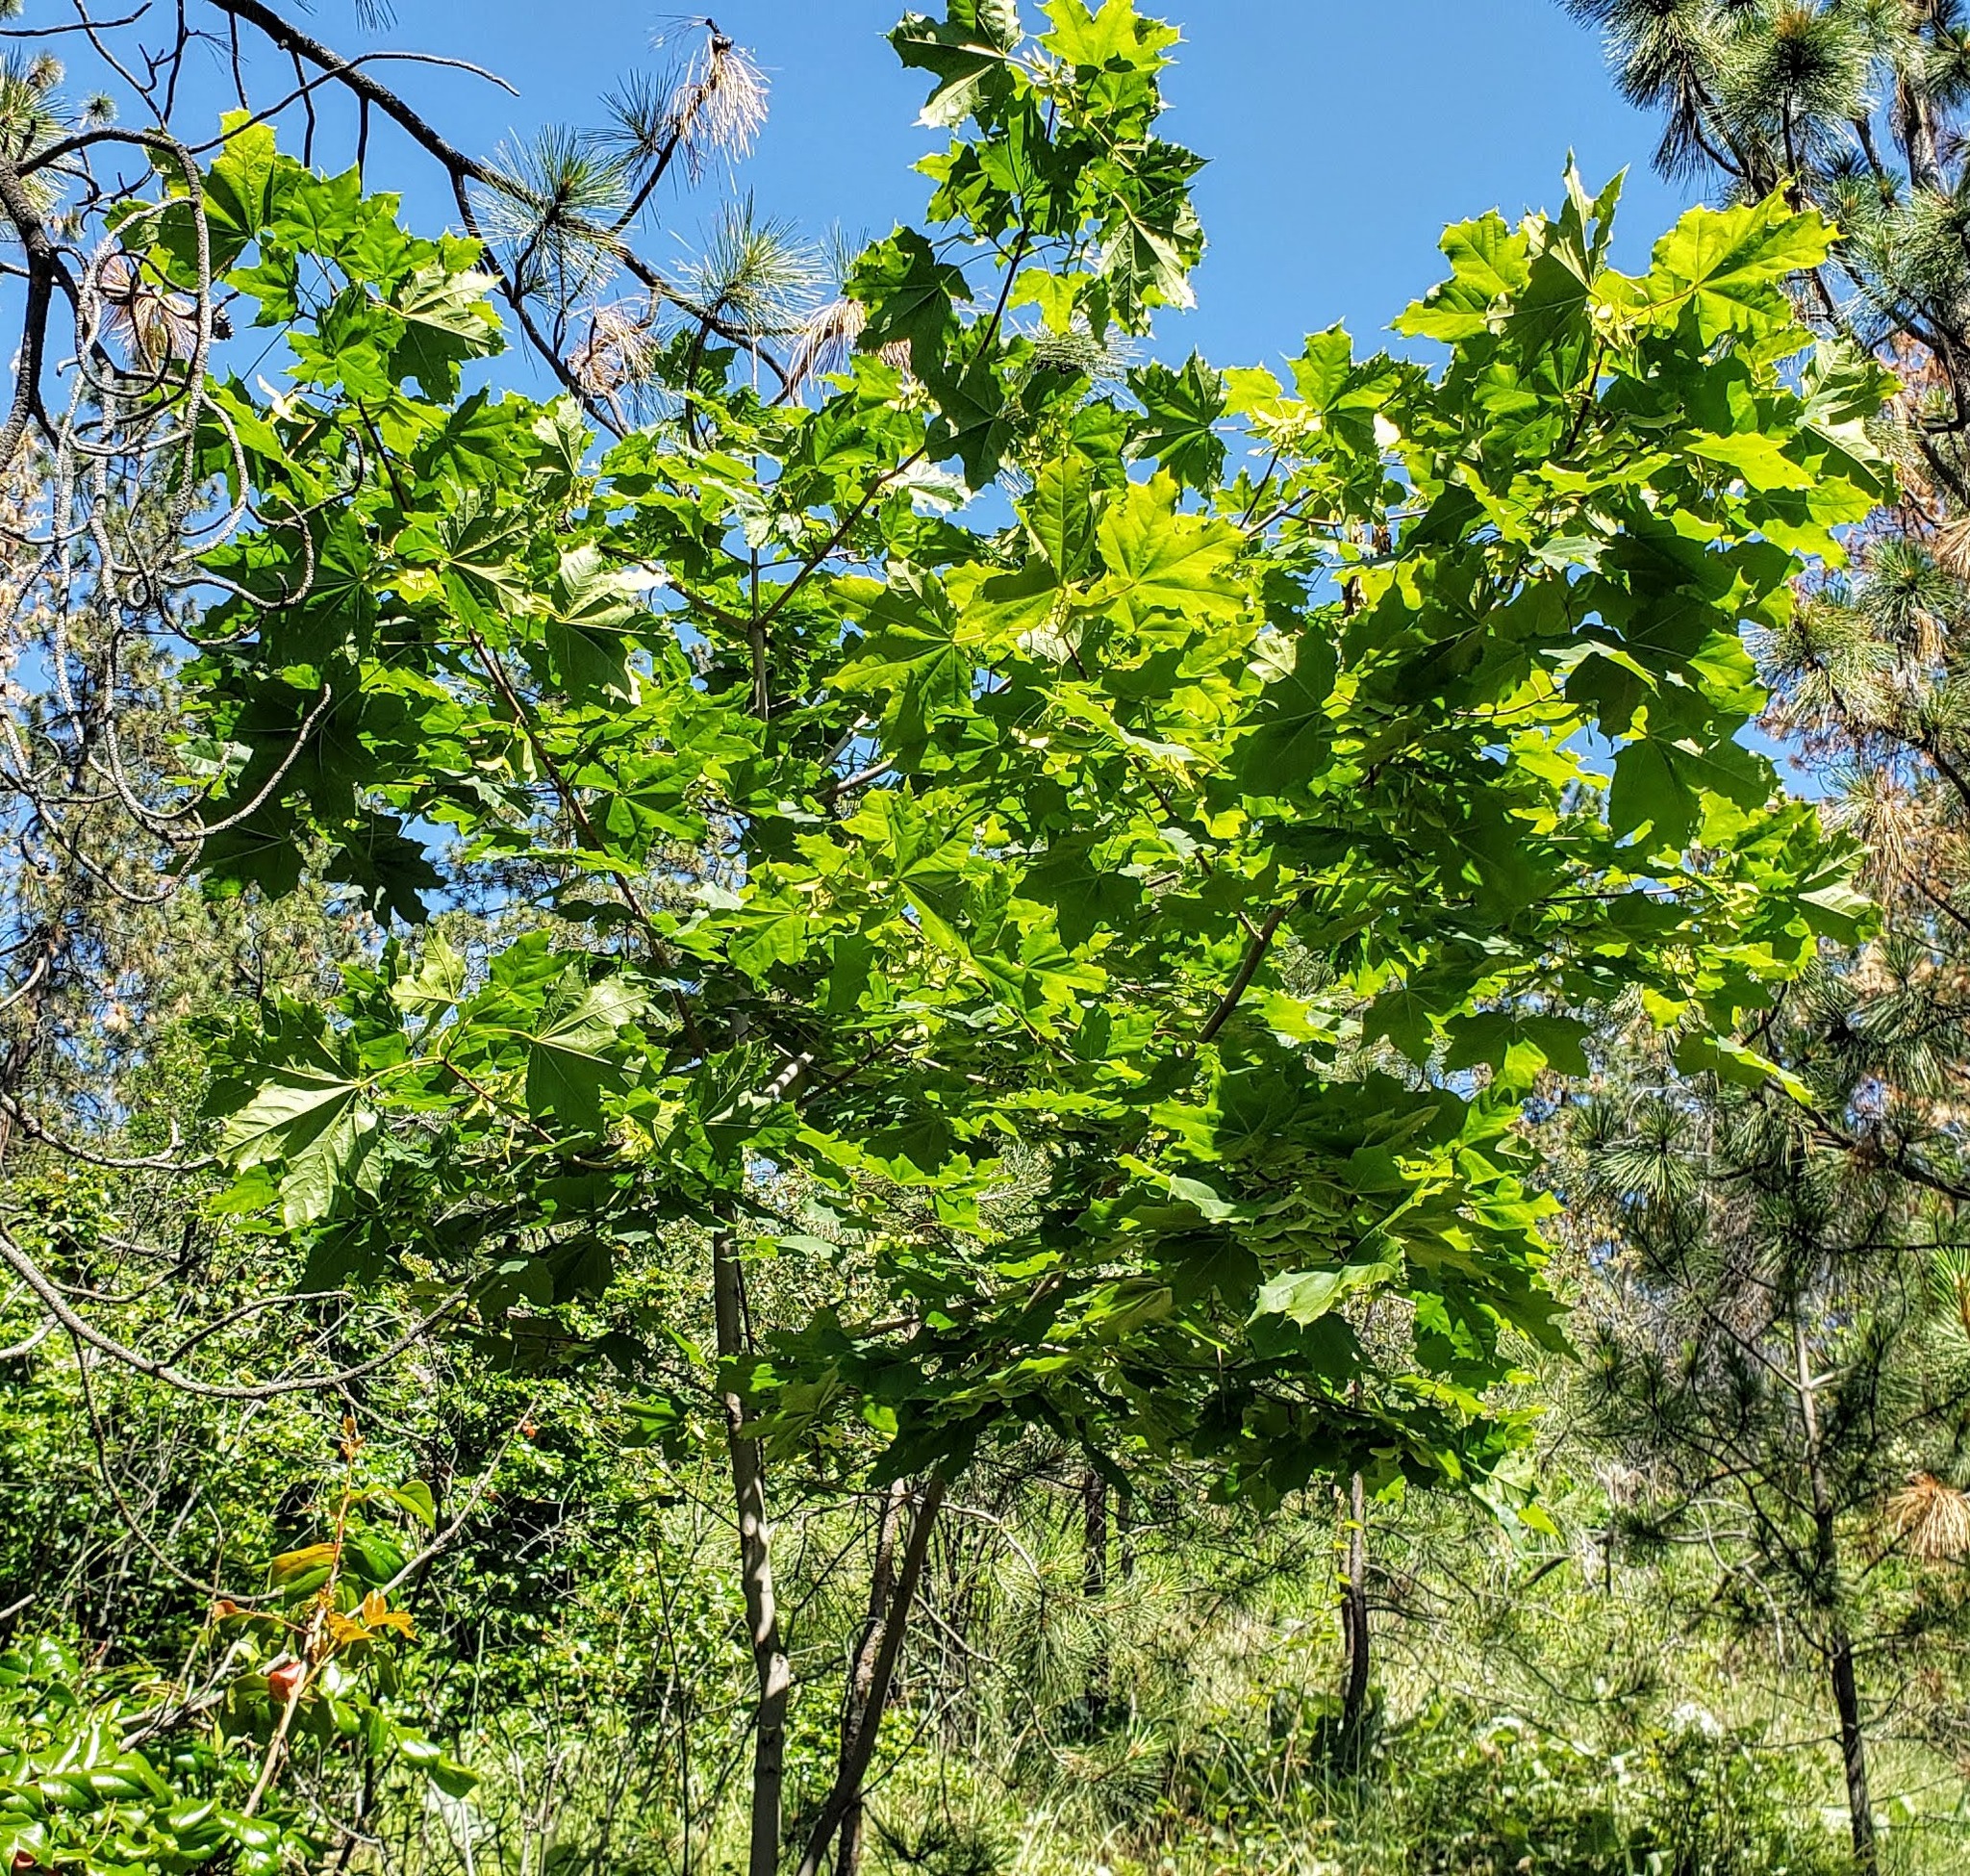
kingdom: Plantae
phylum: Tracheophyta
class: Magnoliopsida
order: Sapindales
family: Sapindaceae
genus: Acer
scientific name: Acer platanoides
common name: Norway maple
